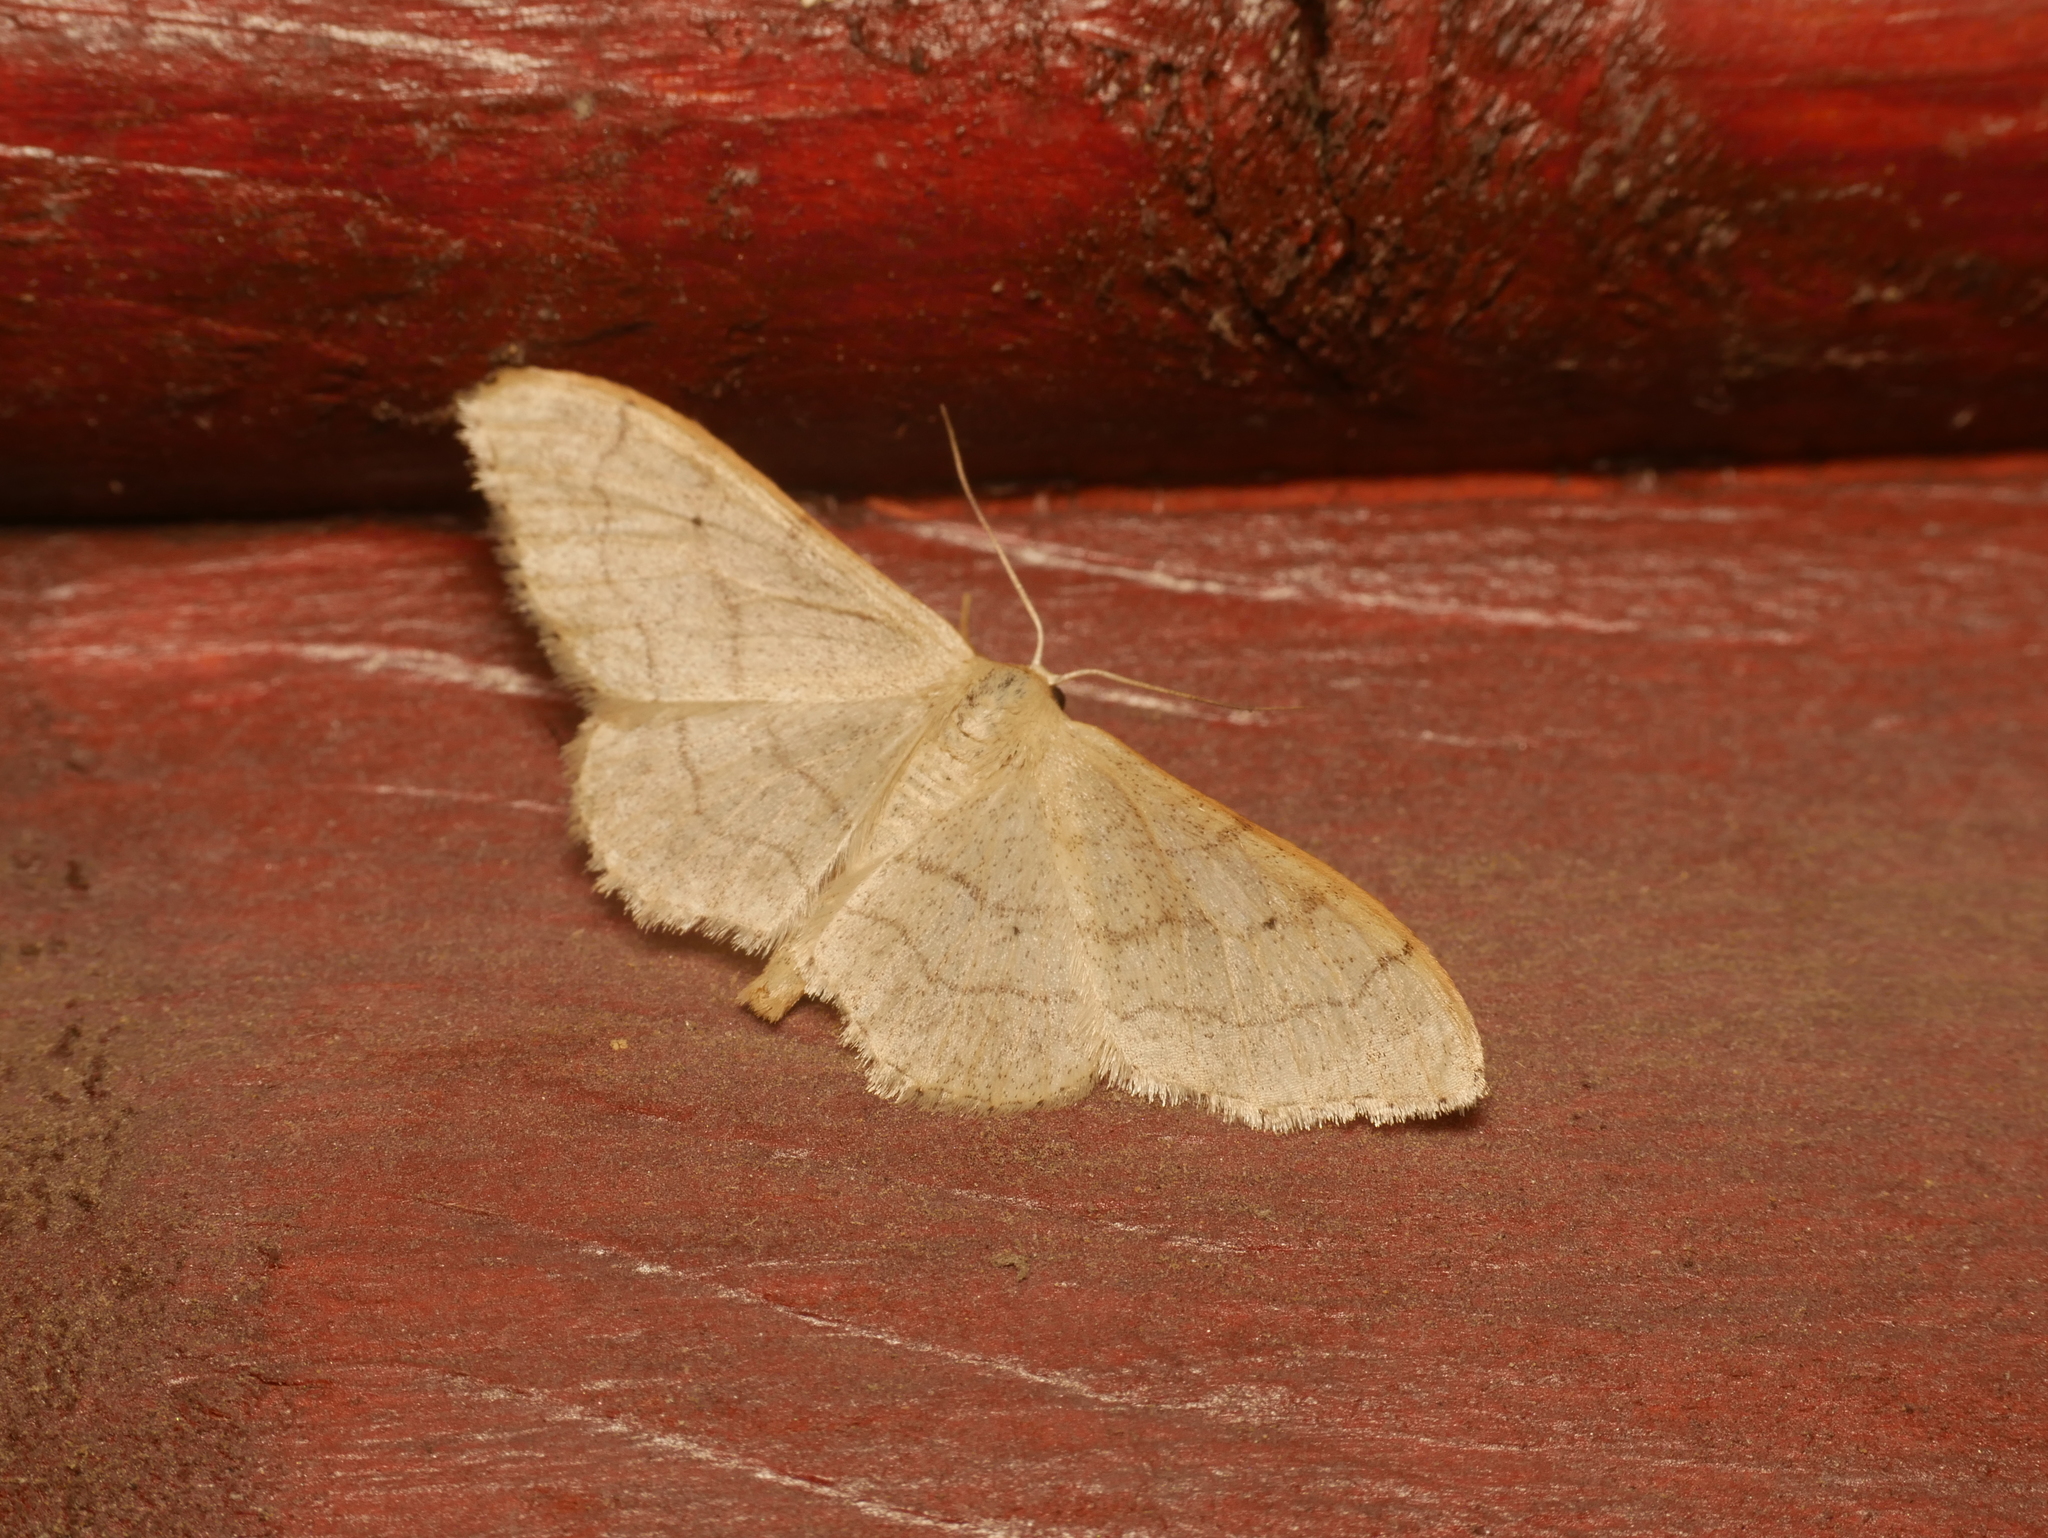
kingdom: Animalia
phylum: Arthropoda
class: Insecta
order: Lepidoptera
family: Geometridae
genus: Idaea
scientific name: Idaea aversata
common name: Riband wave
